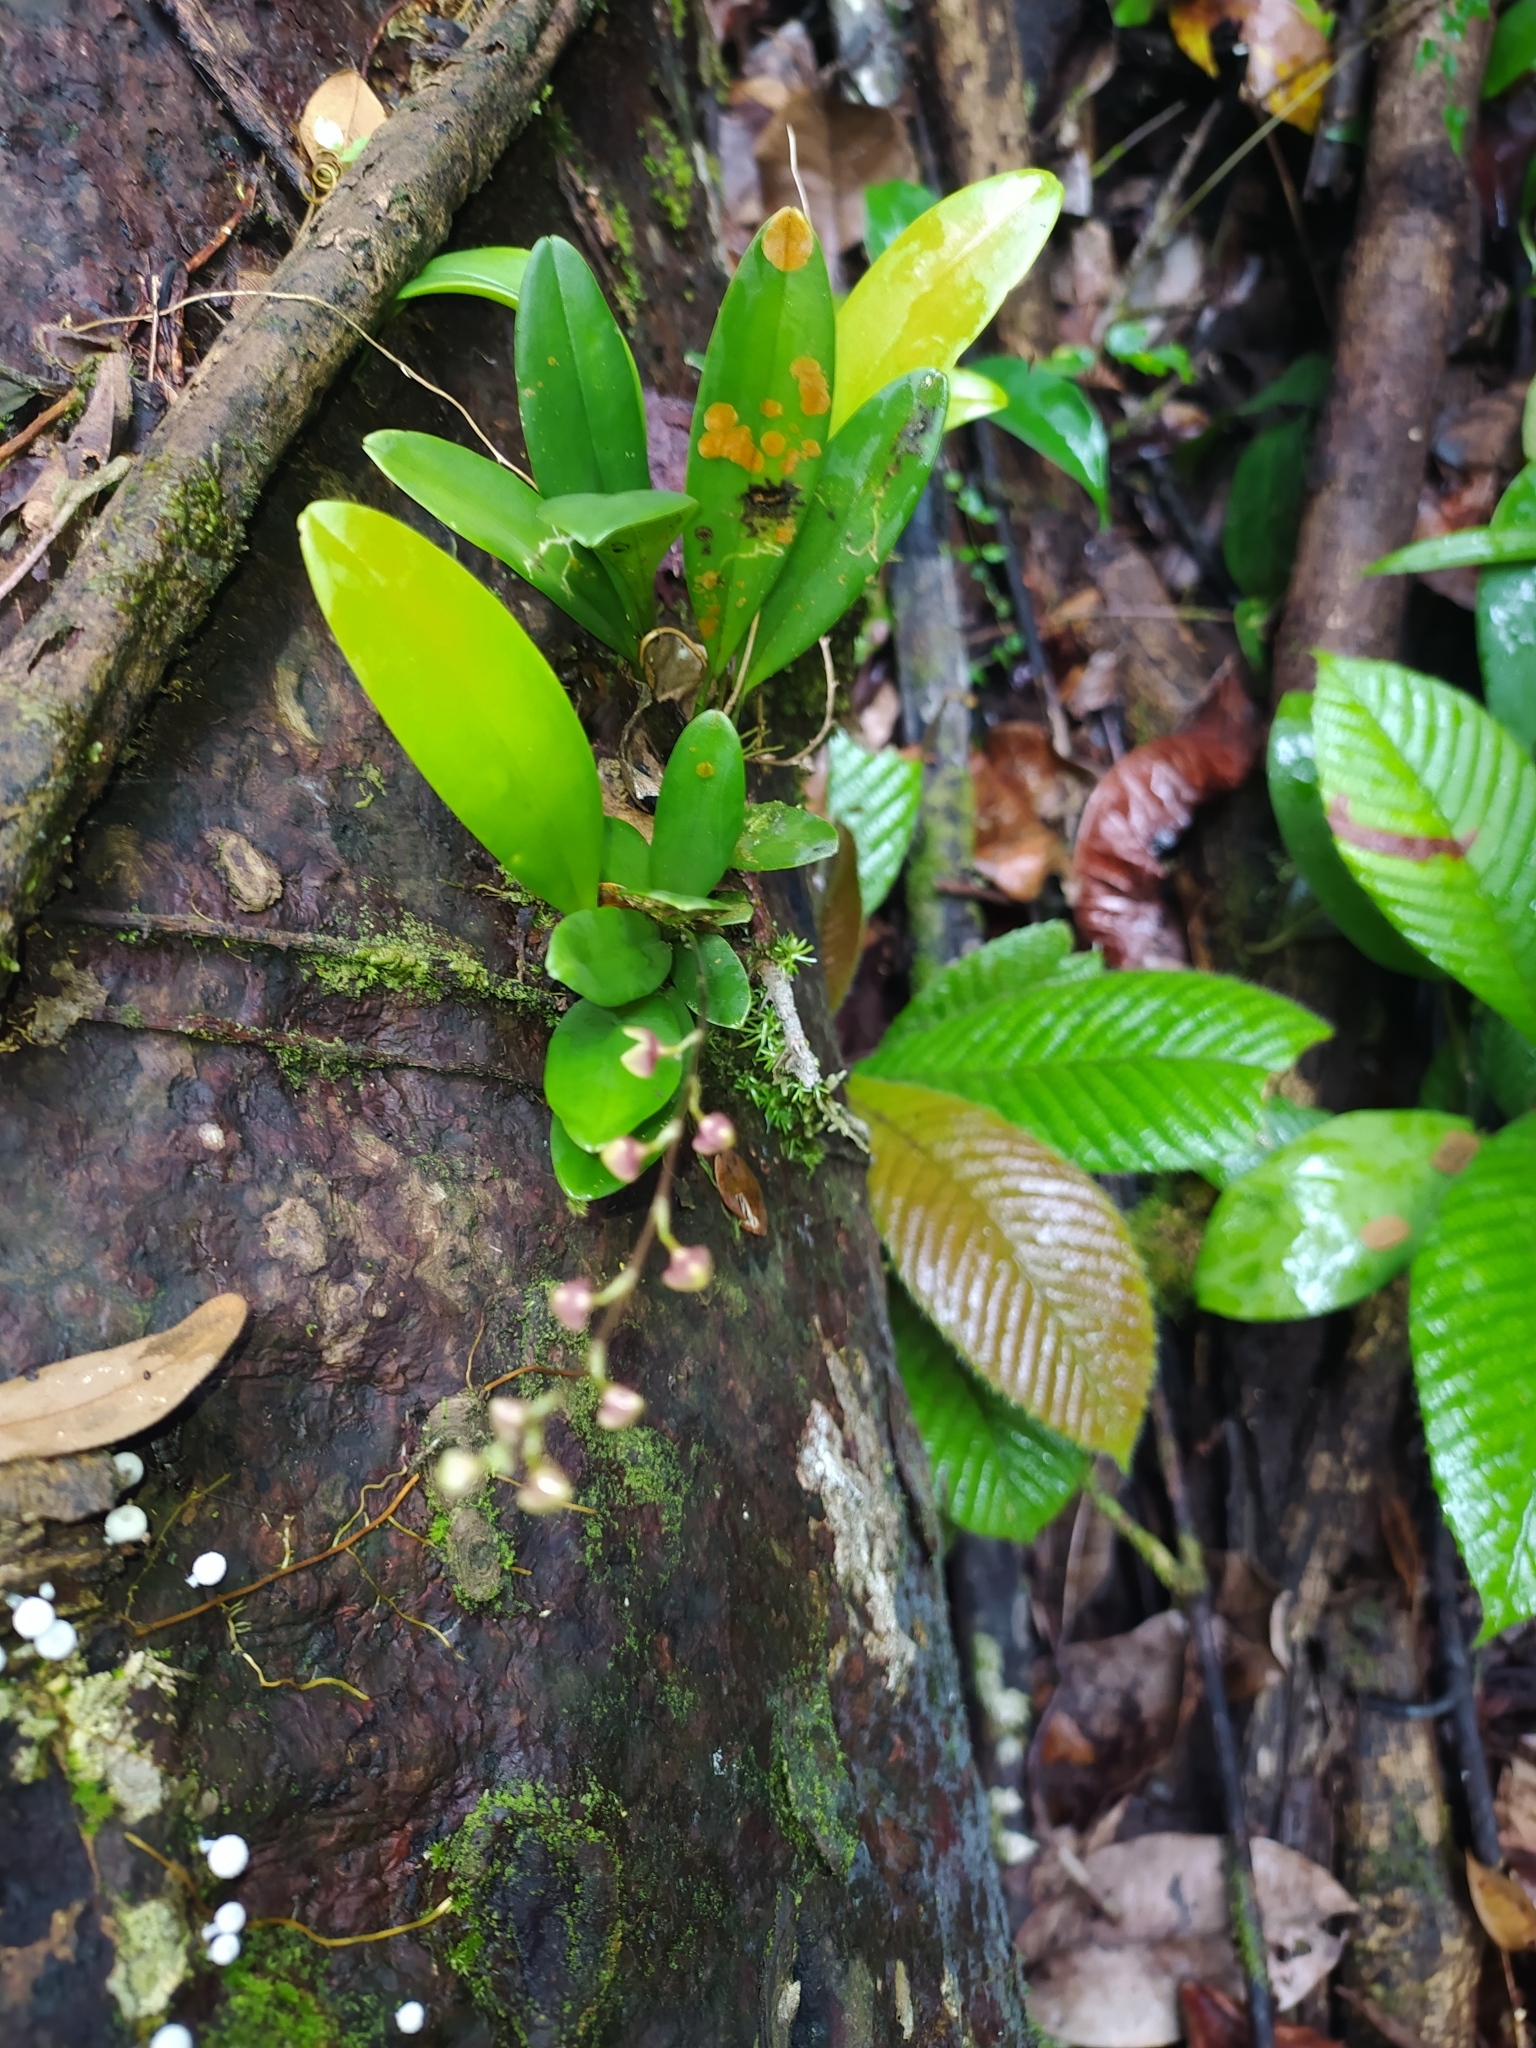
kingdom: Plantae
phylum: Tracheophyta
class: Liliopsida
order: Asparagales
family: Orchidaceae
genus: Stelis
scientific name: Stelis
